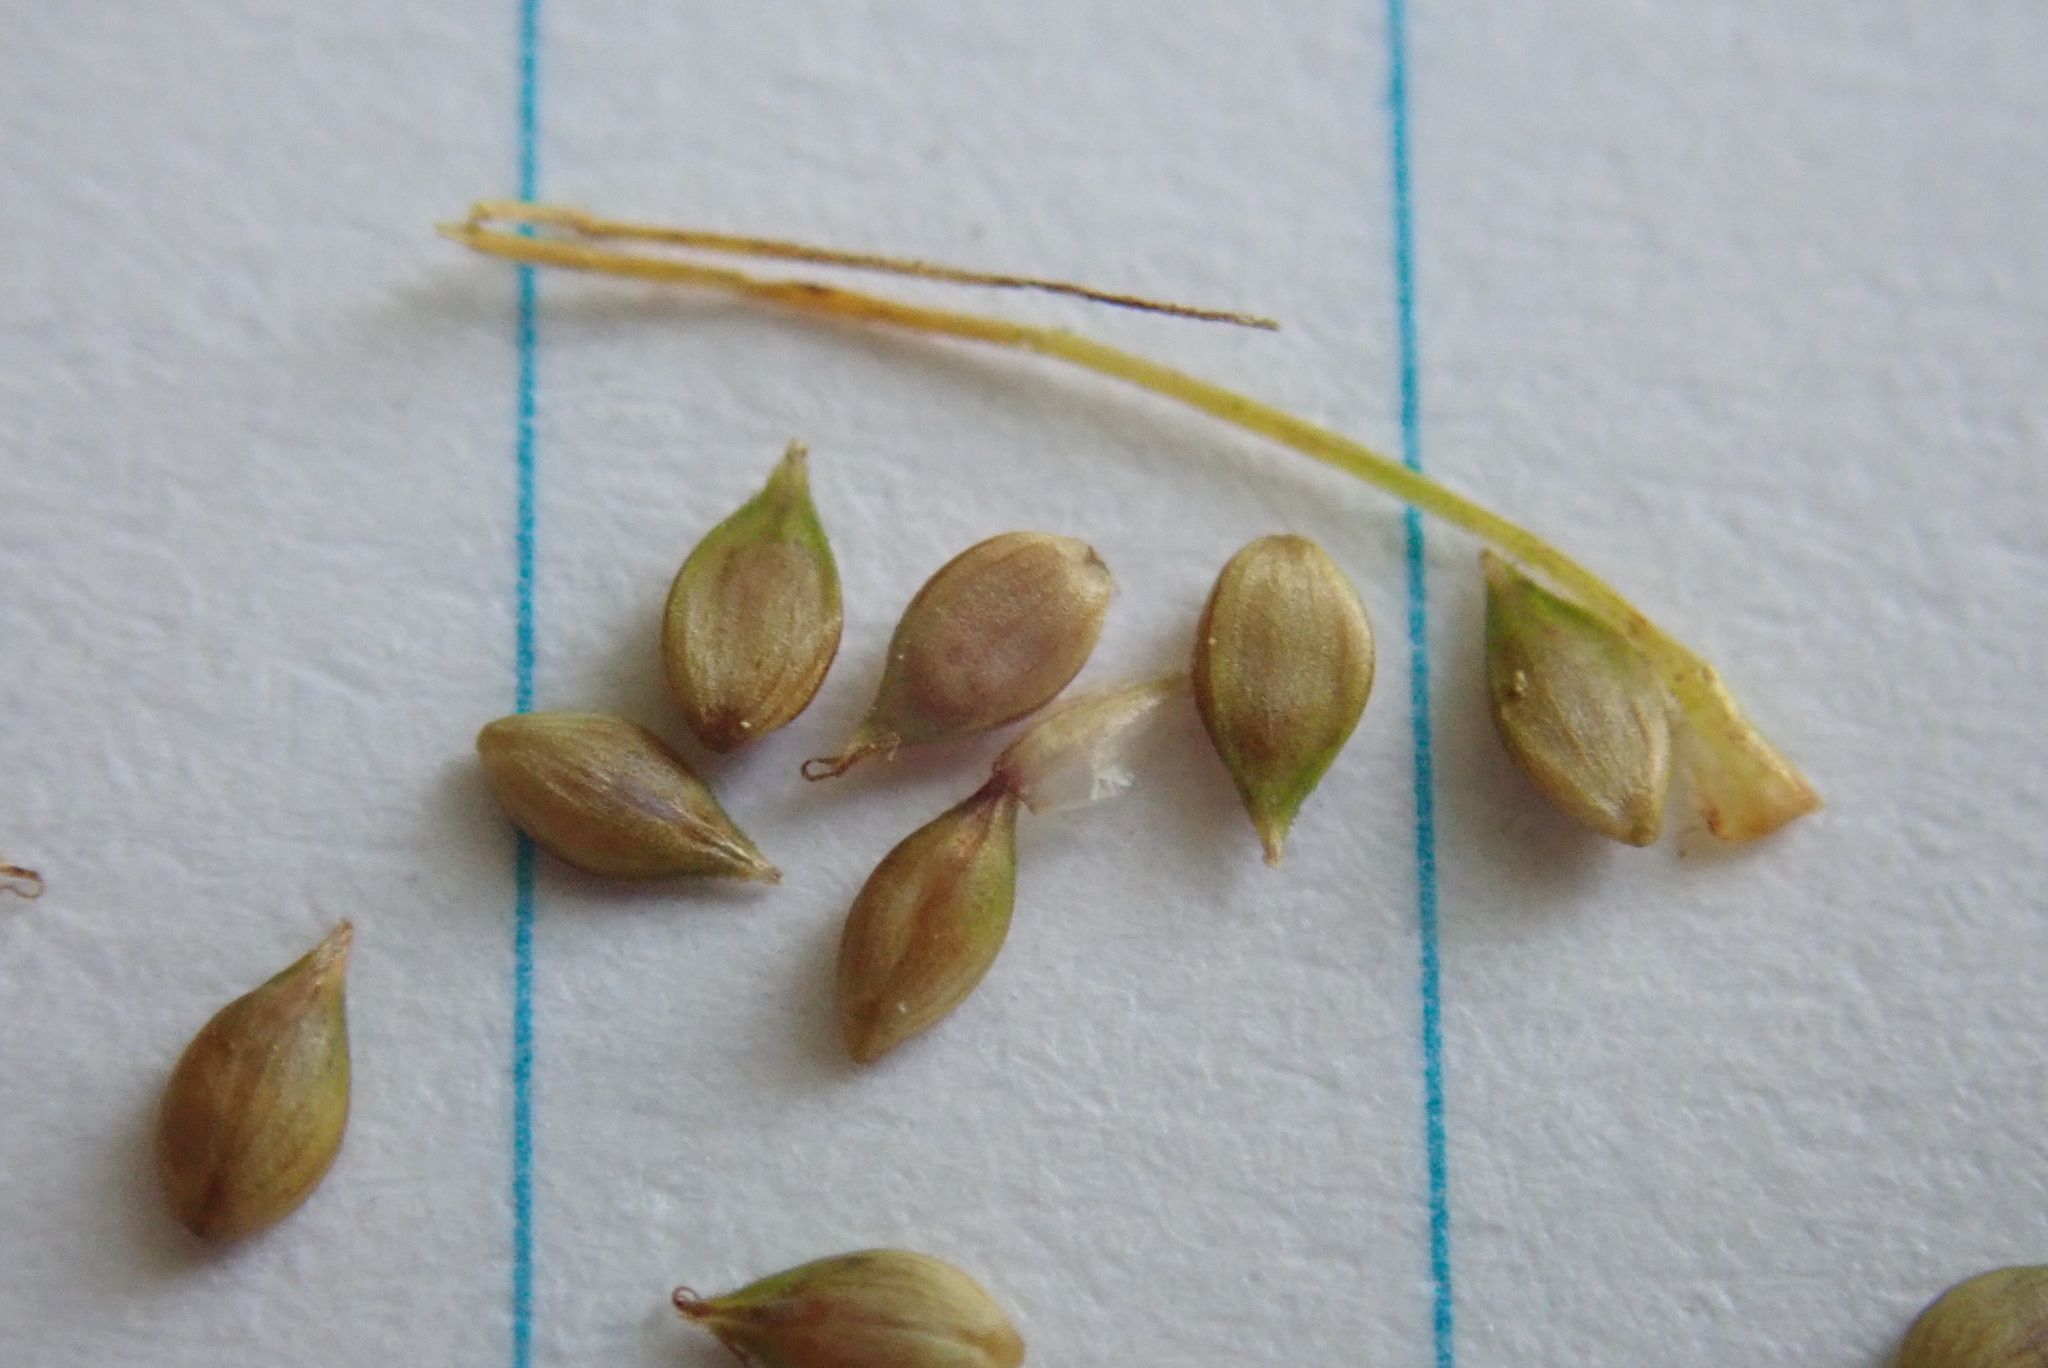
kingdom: Plantae
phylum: Tracheophyta
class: Liliopsida
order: Poales
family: Cyperaceae
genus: Carex
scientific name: Carex brunnescens
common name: Brown sedge
